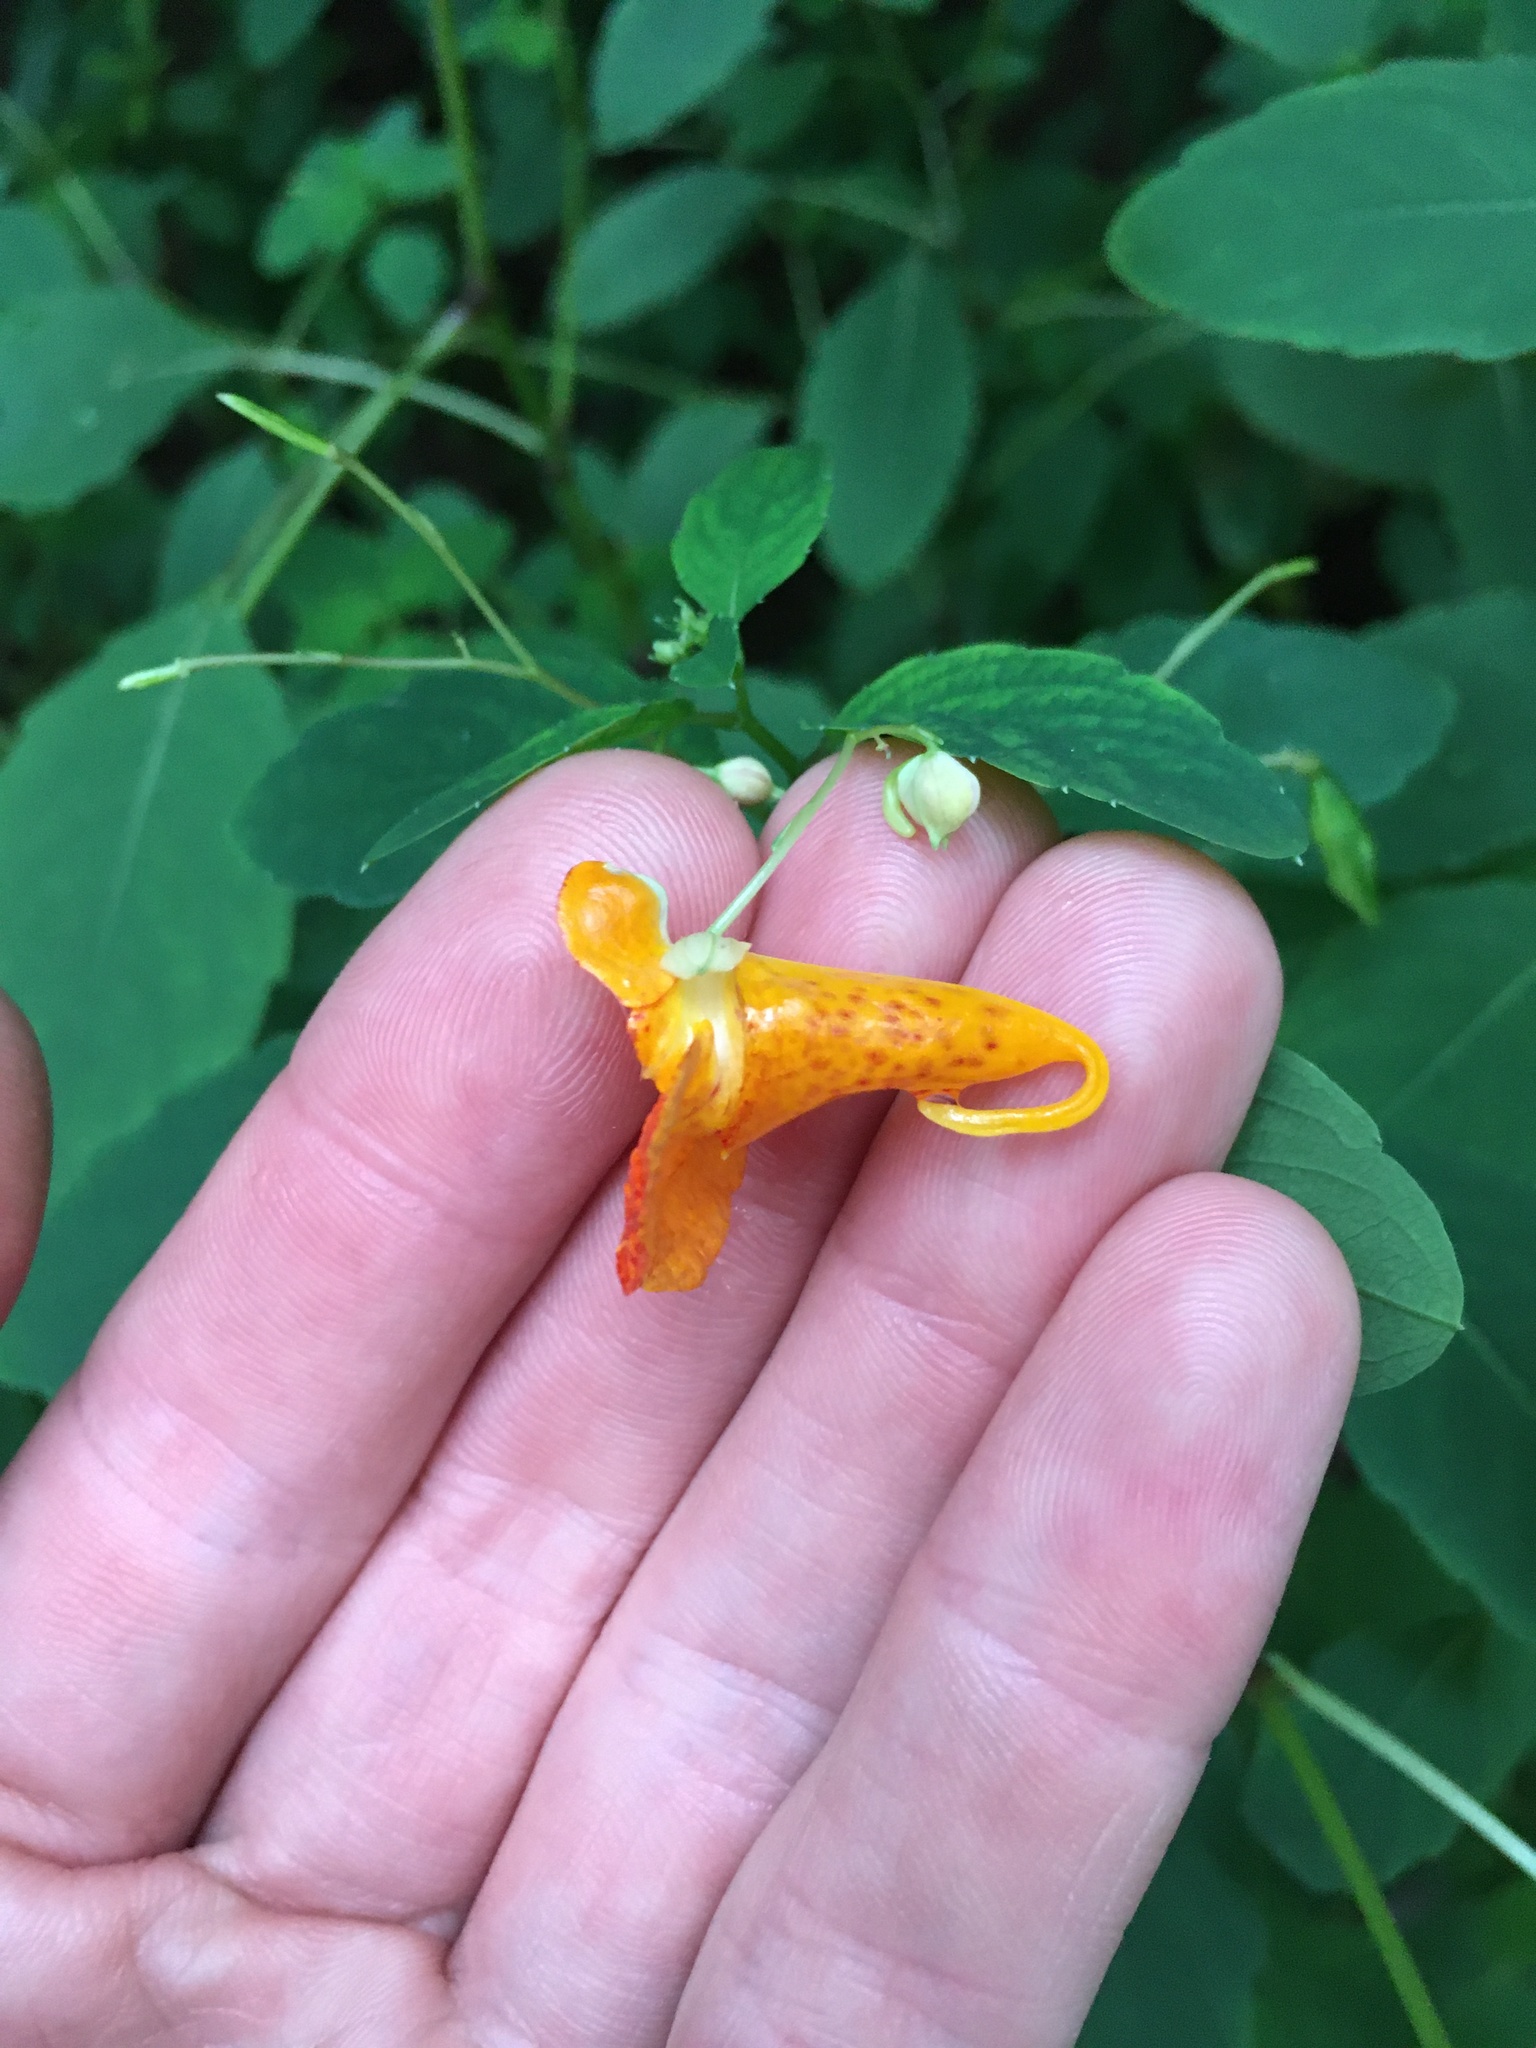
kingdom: Plantae
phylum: Tracheophyta
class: Magnoliopsida
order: Ericales
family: Balsaminaceae
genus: Impatiens
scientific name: Impatiens capensis
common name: Orange balsam
